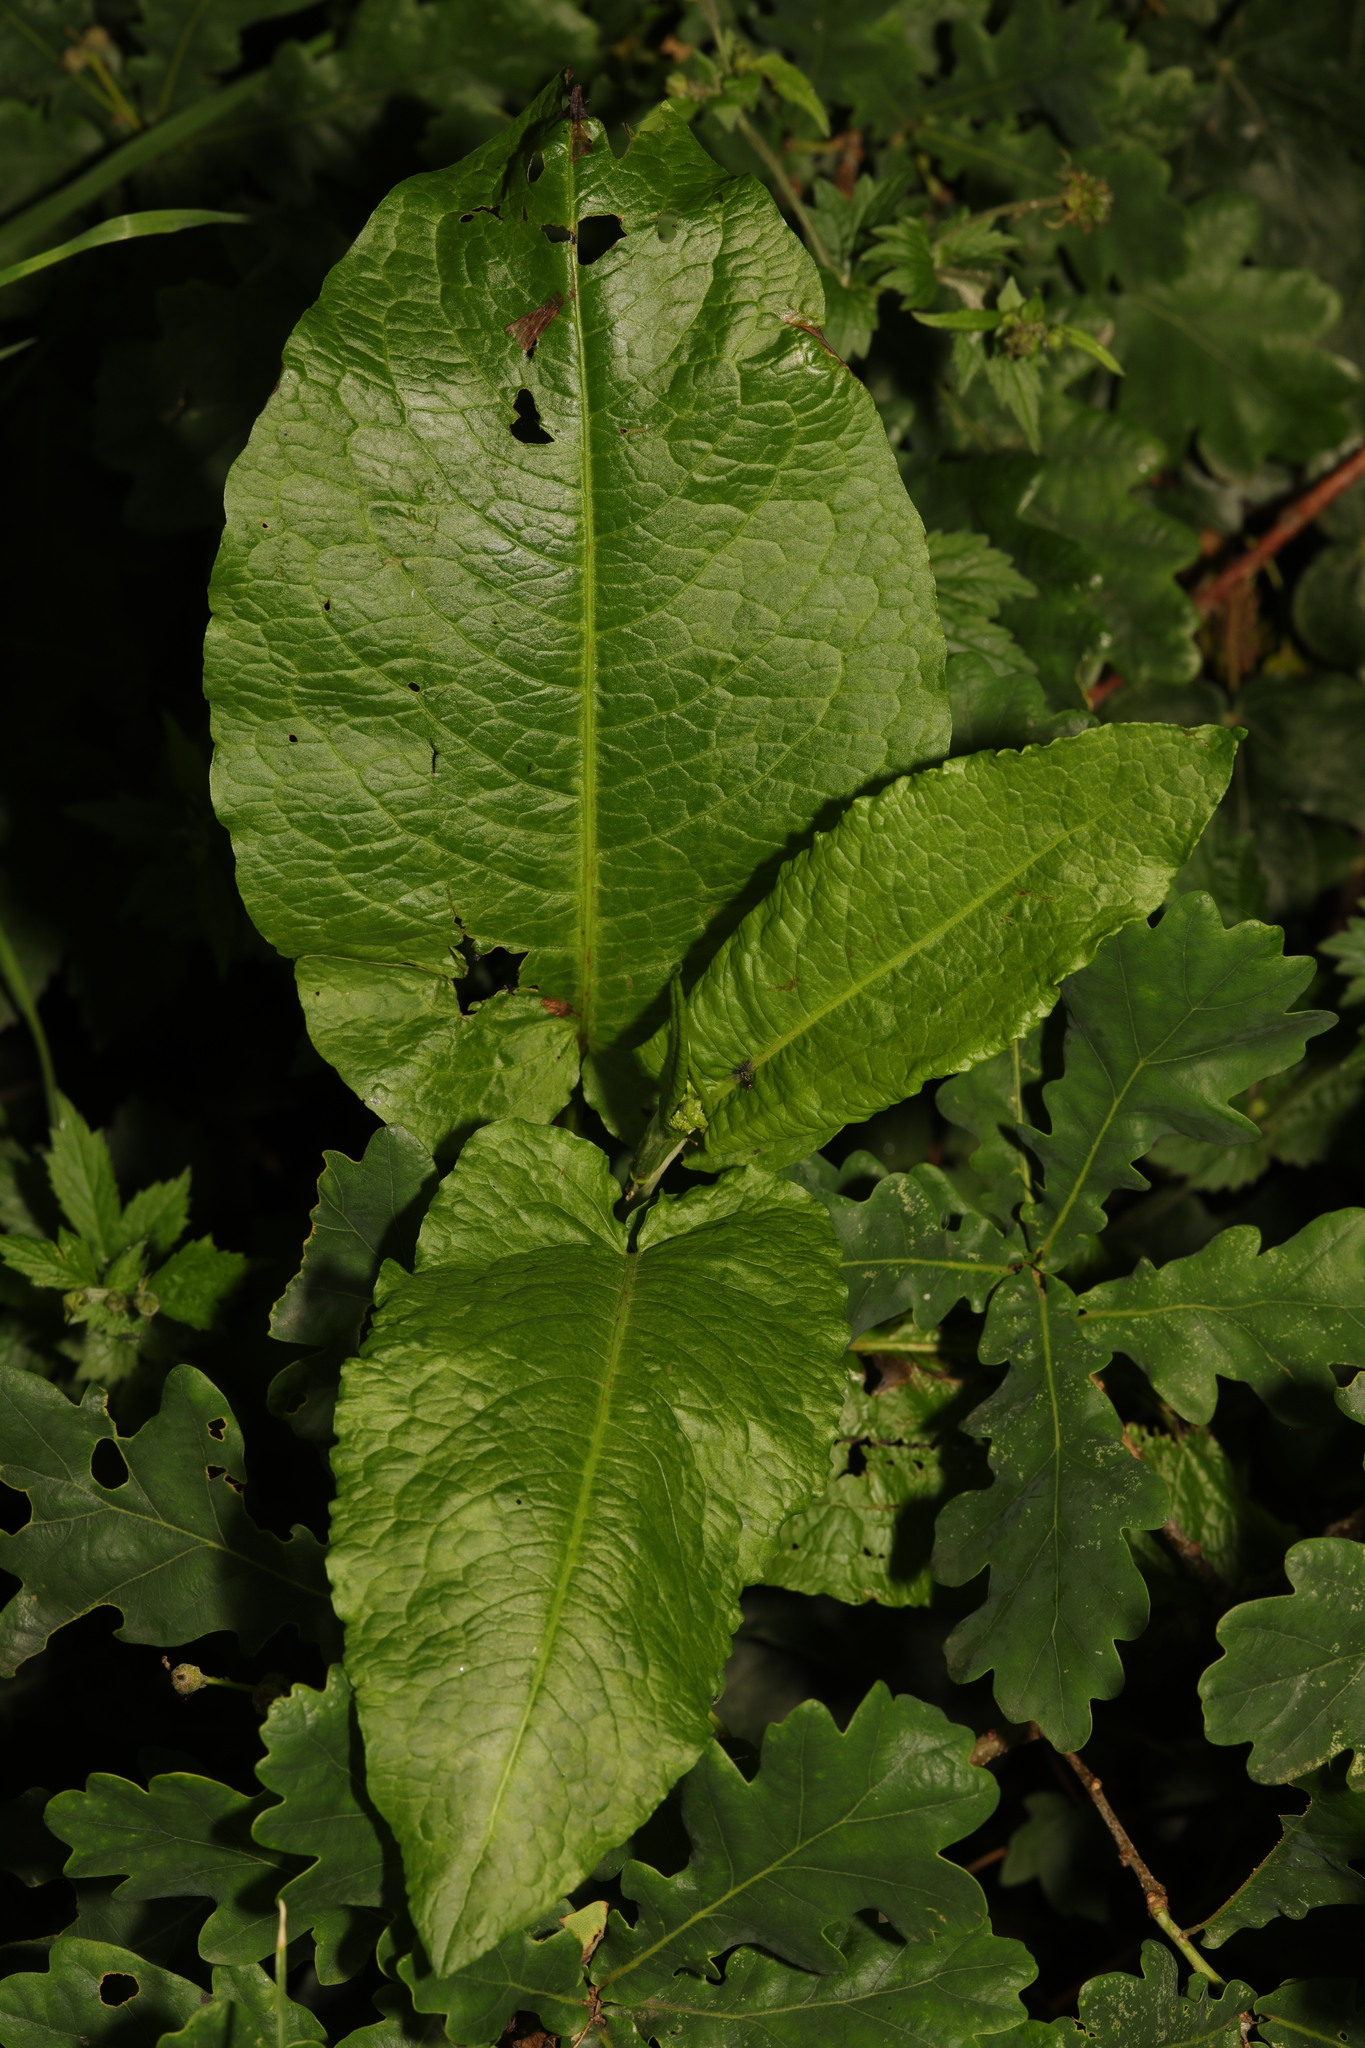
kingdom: Plantae
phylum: Tracheophyta
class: Magnoliopsida
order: Caryophyllales
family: Polygonaceae
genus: Rumex
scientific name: Rumex obtusifolius
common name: Bitter dock
